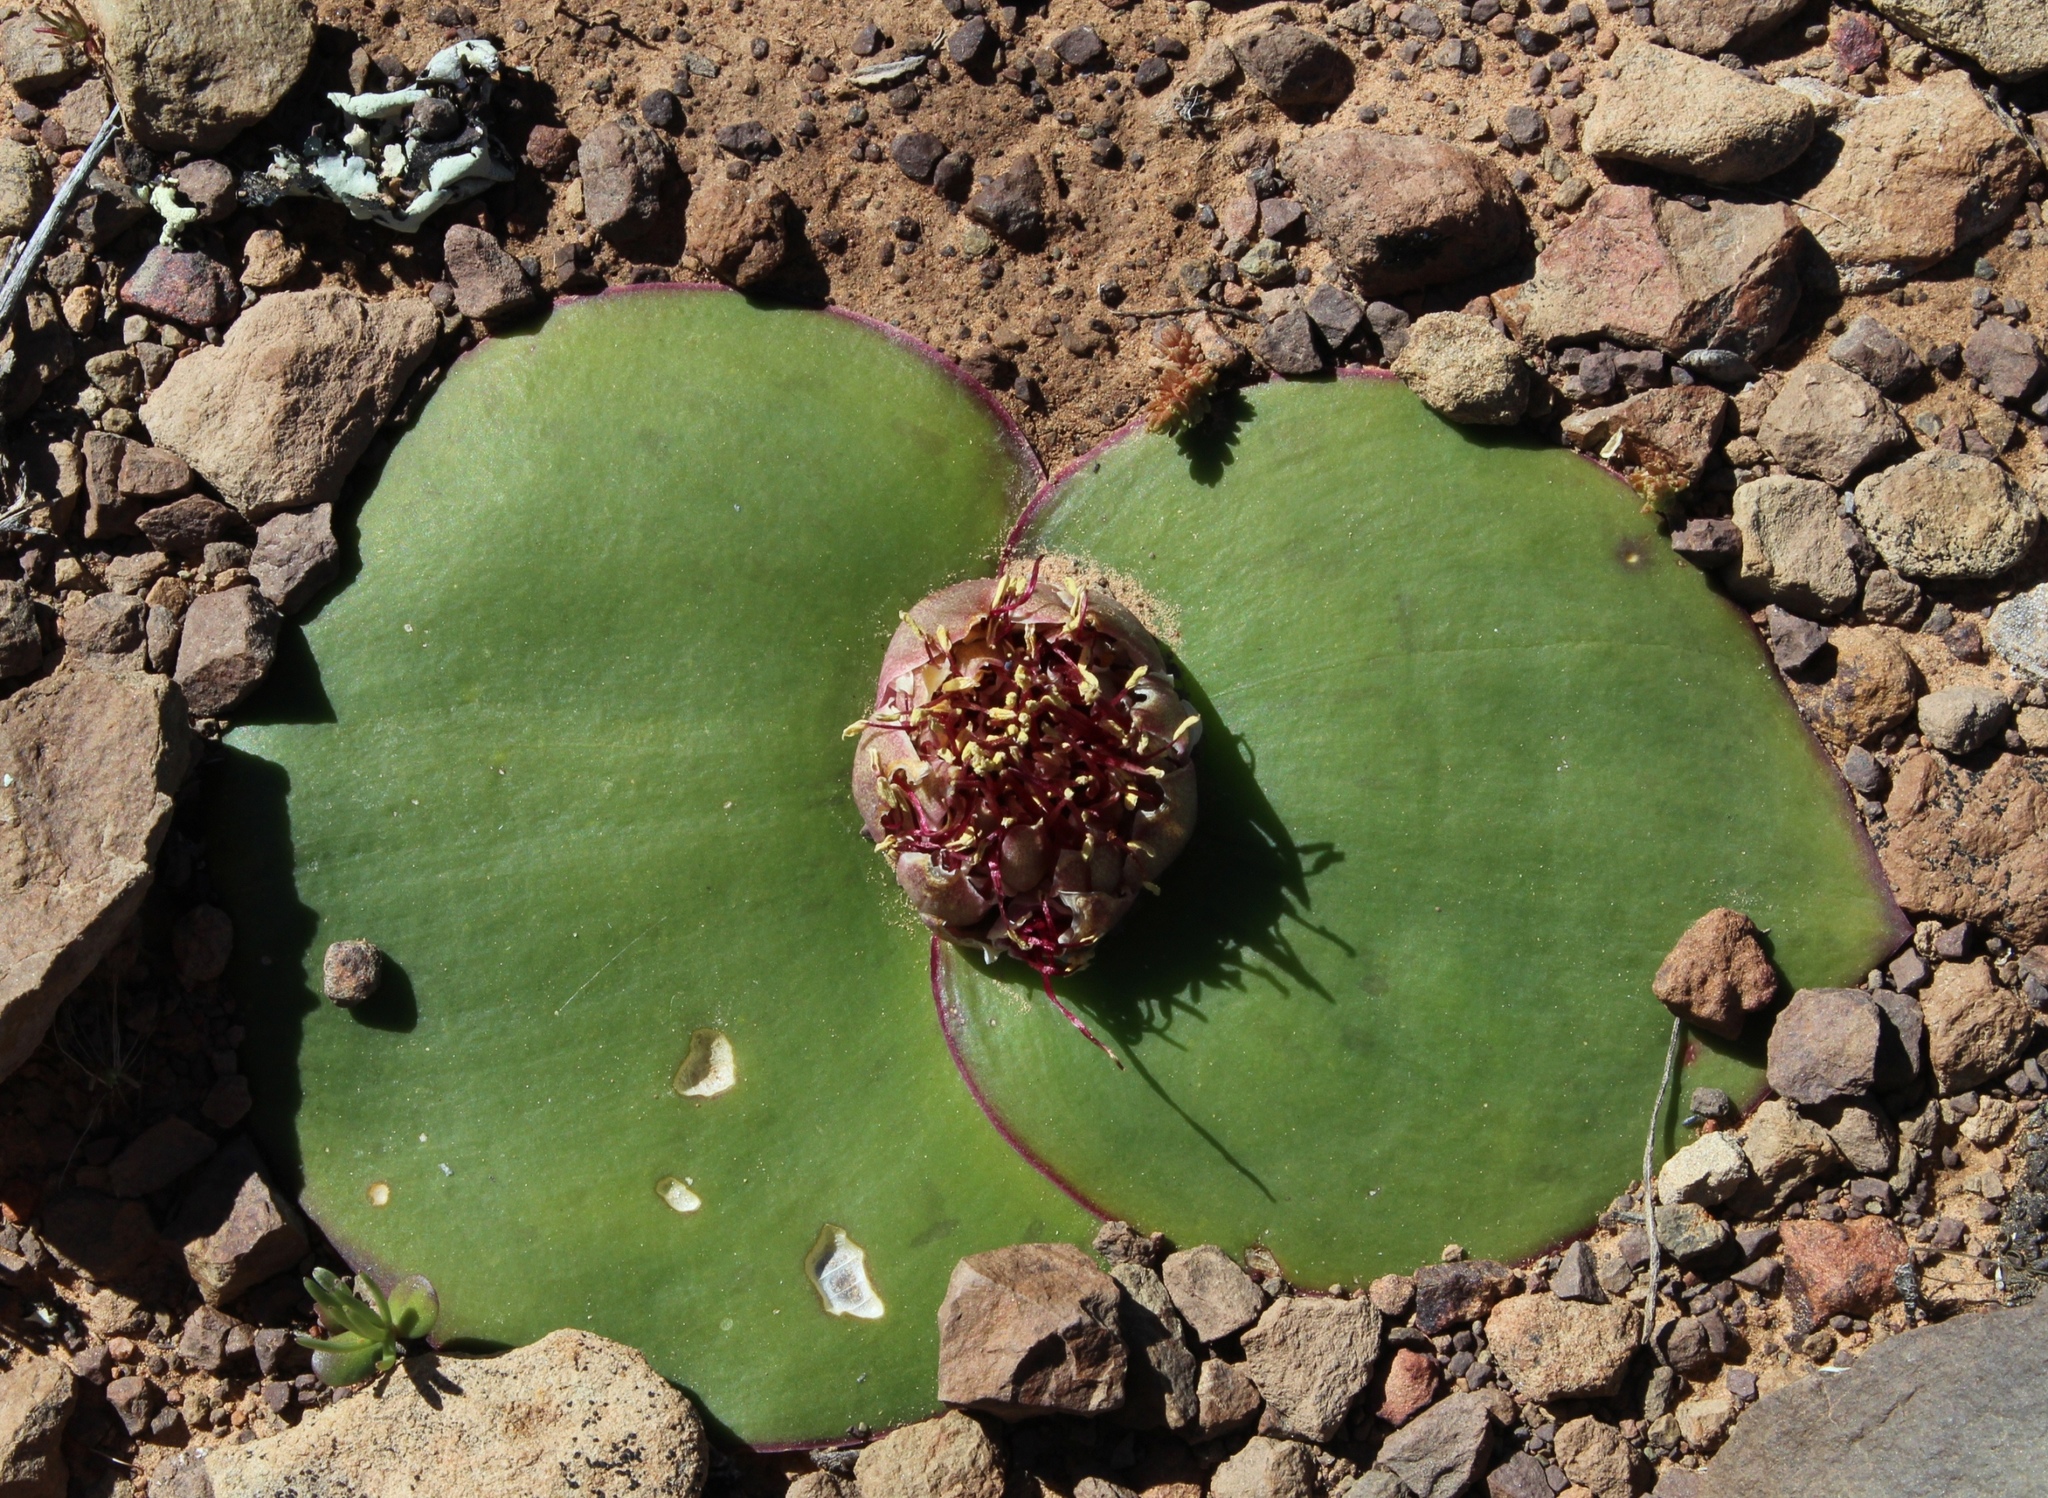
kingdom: Plantae
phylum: Tracheophyta
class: Liliopsida
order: Asparagales
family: Asparagaceae
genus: Massonia
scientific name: Massonia depressa
